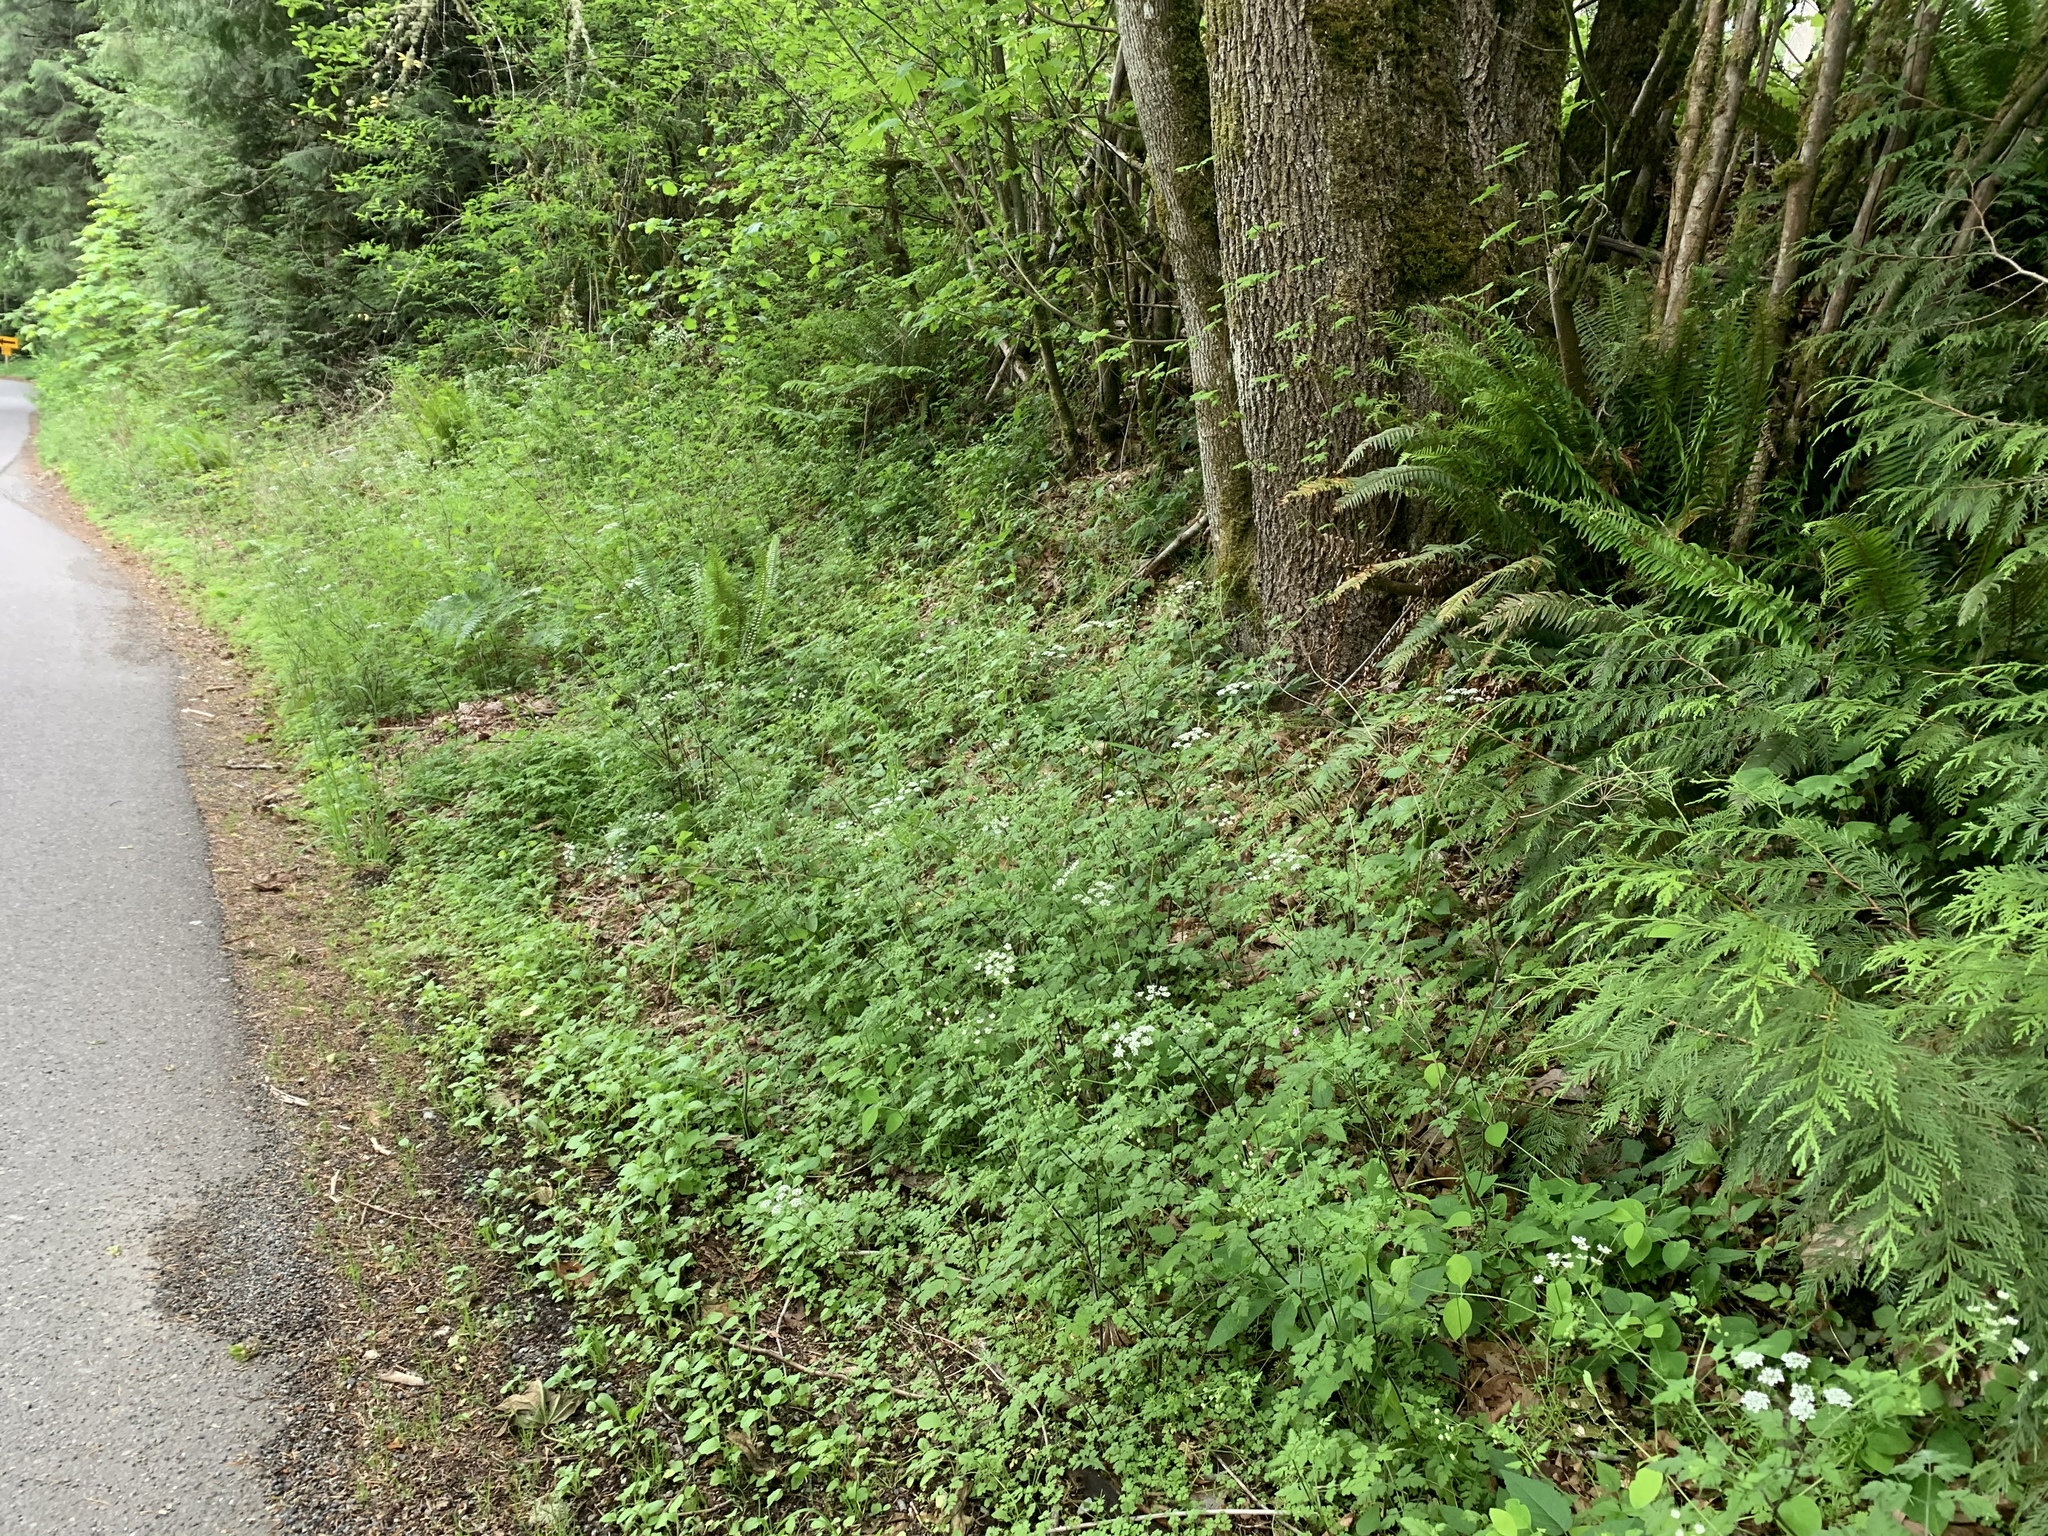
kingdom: Plantae
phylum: Tracheophyta
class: Magnoliopsida
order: Apiales
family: Apiaceae
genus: Chaerophyllum
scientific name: Chaerophyllum temulum
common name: Rough chervil
